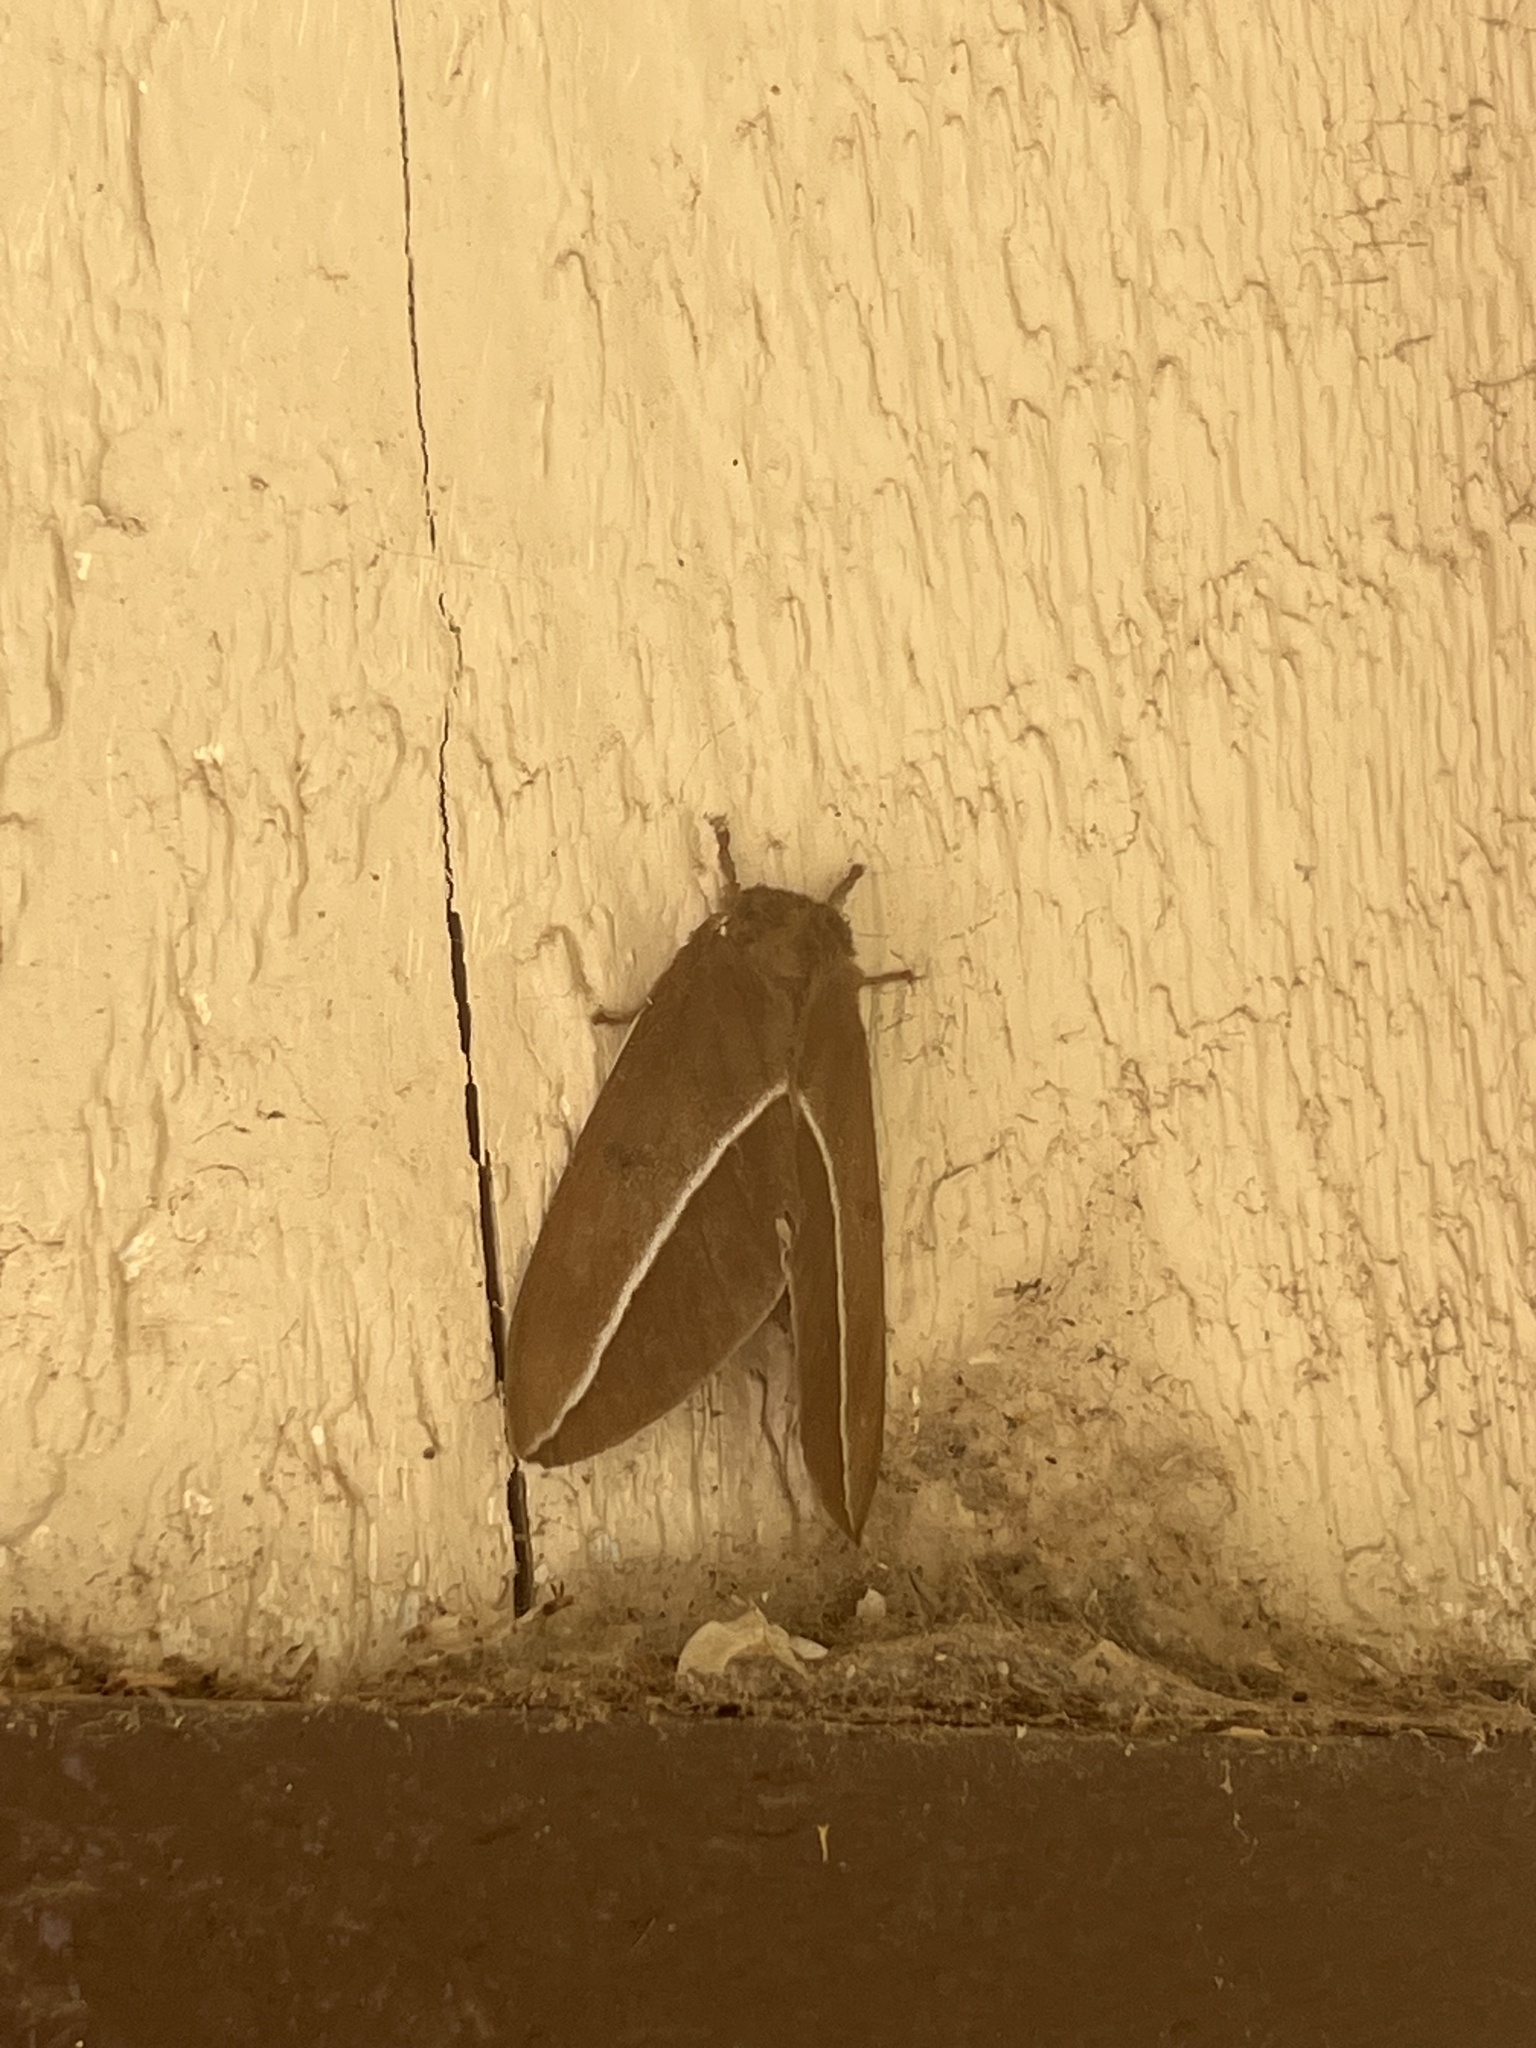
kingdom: Animalia
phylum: Arthropoda
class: Insecta
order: Lepidoptera
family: Saturniidae
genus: Automeris
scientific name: Automeris zephyria
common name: Zephyr eyed silkmoth
